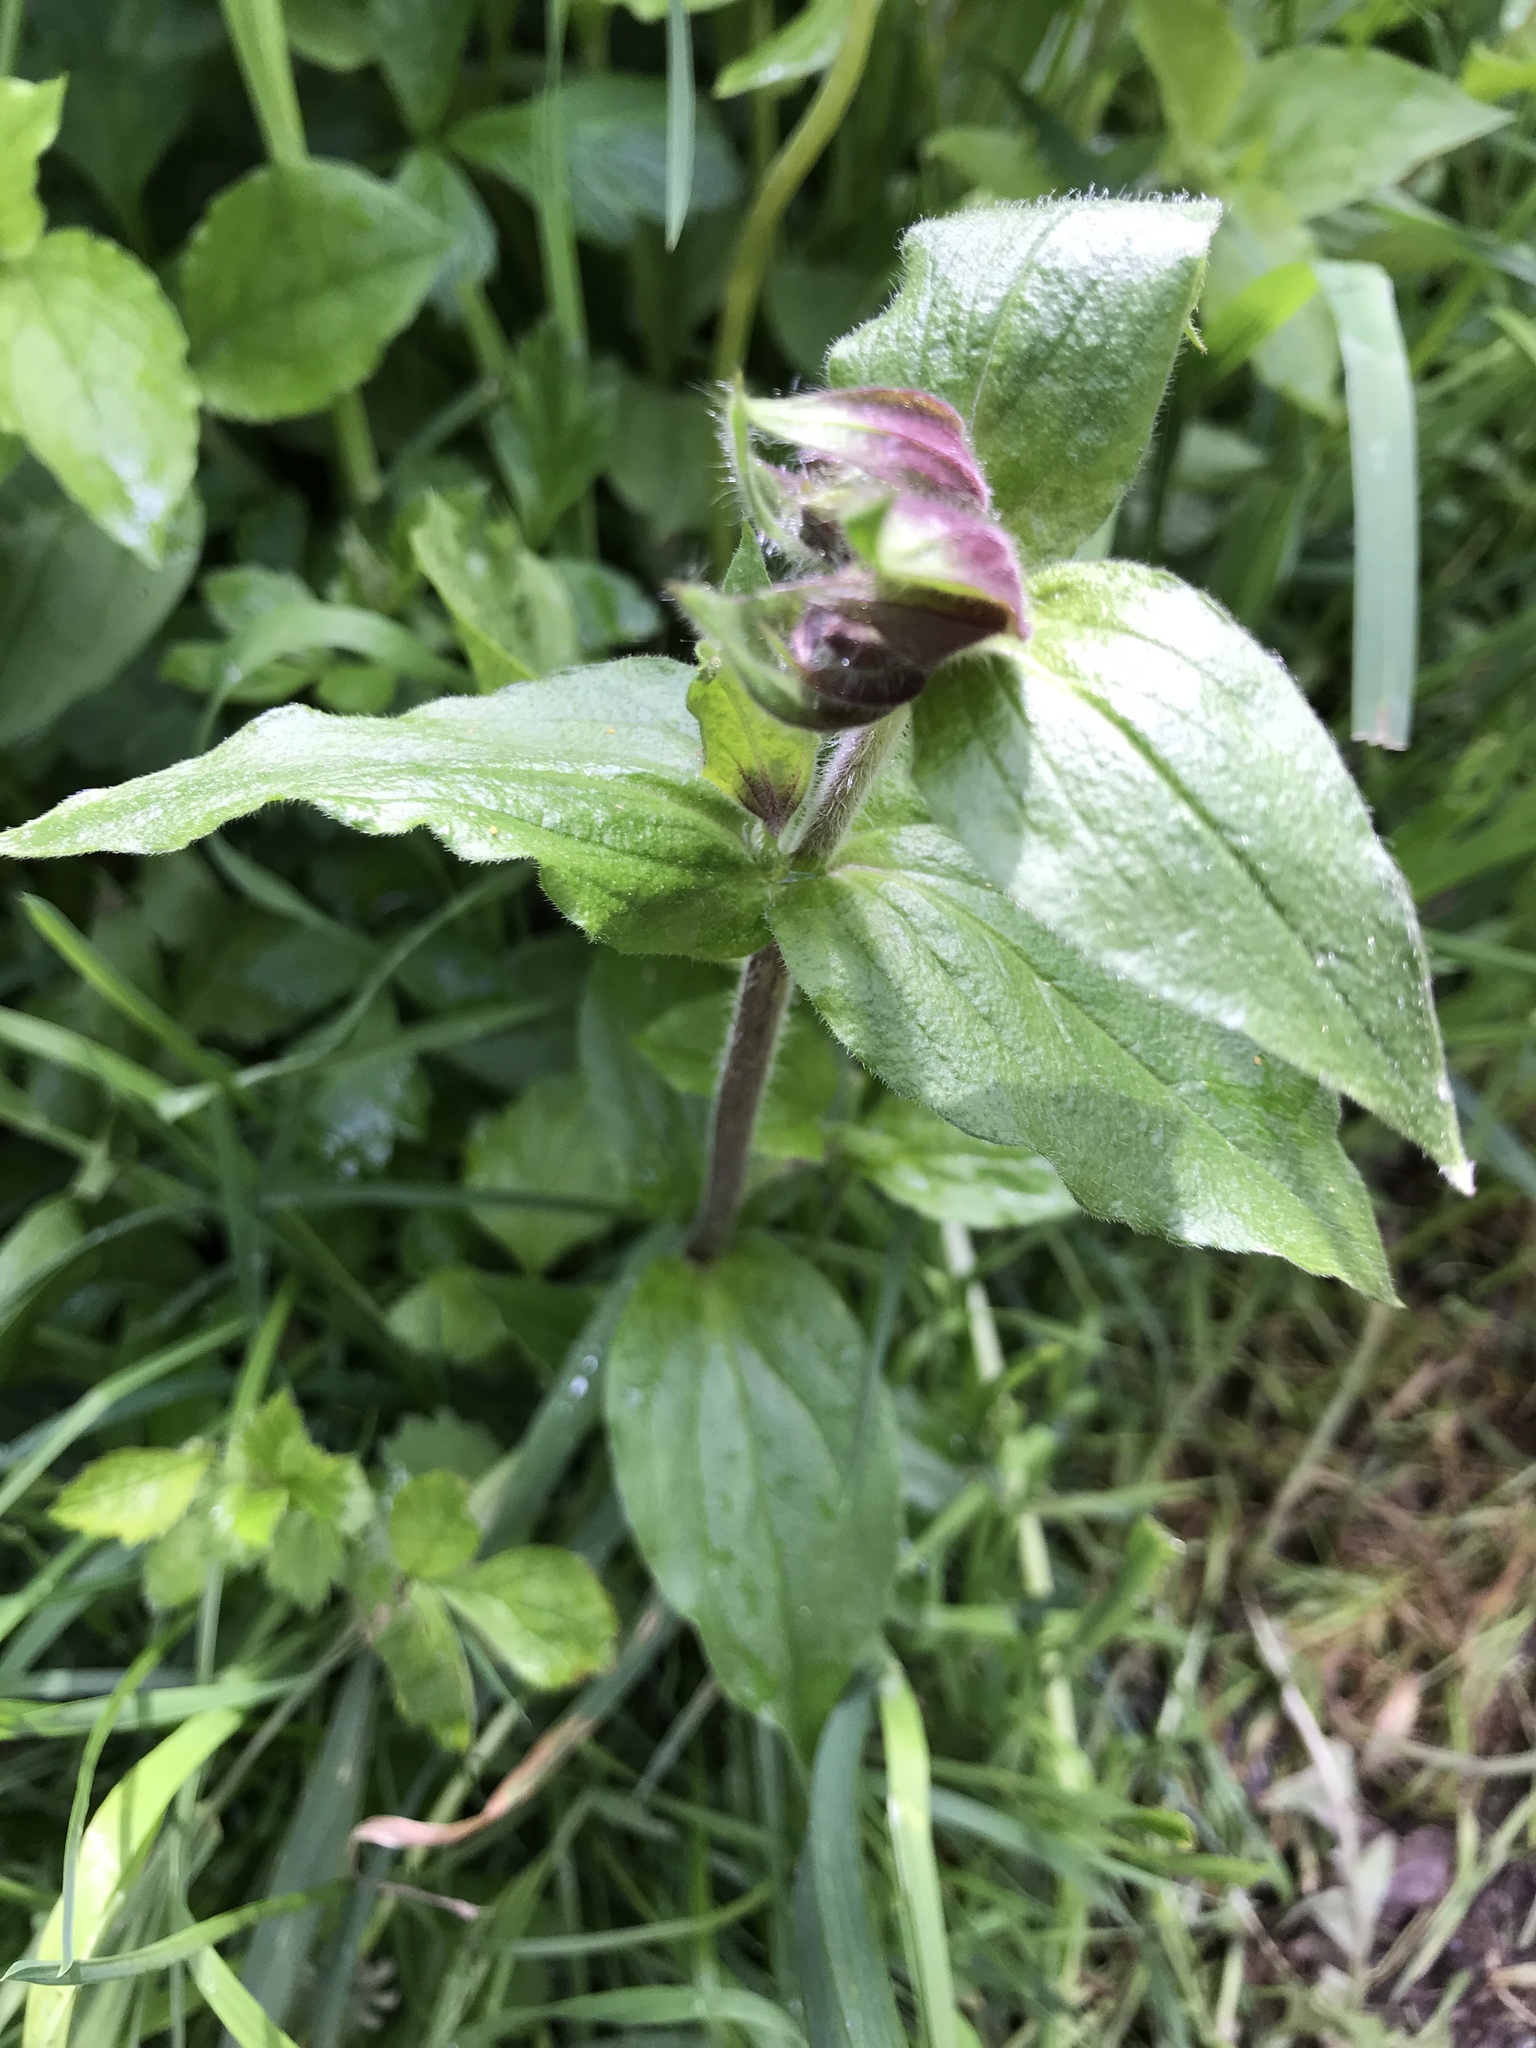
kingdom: Plantae
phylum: Tracheophyta
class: Magnoliopsida
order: Caryophyllales
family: Caryophyllaceae
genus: Silene
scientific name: Silene dioica
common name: Red campion
